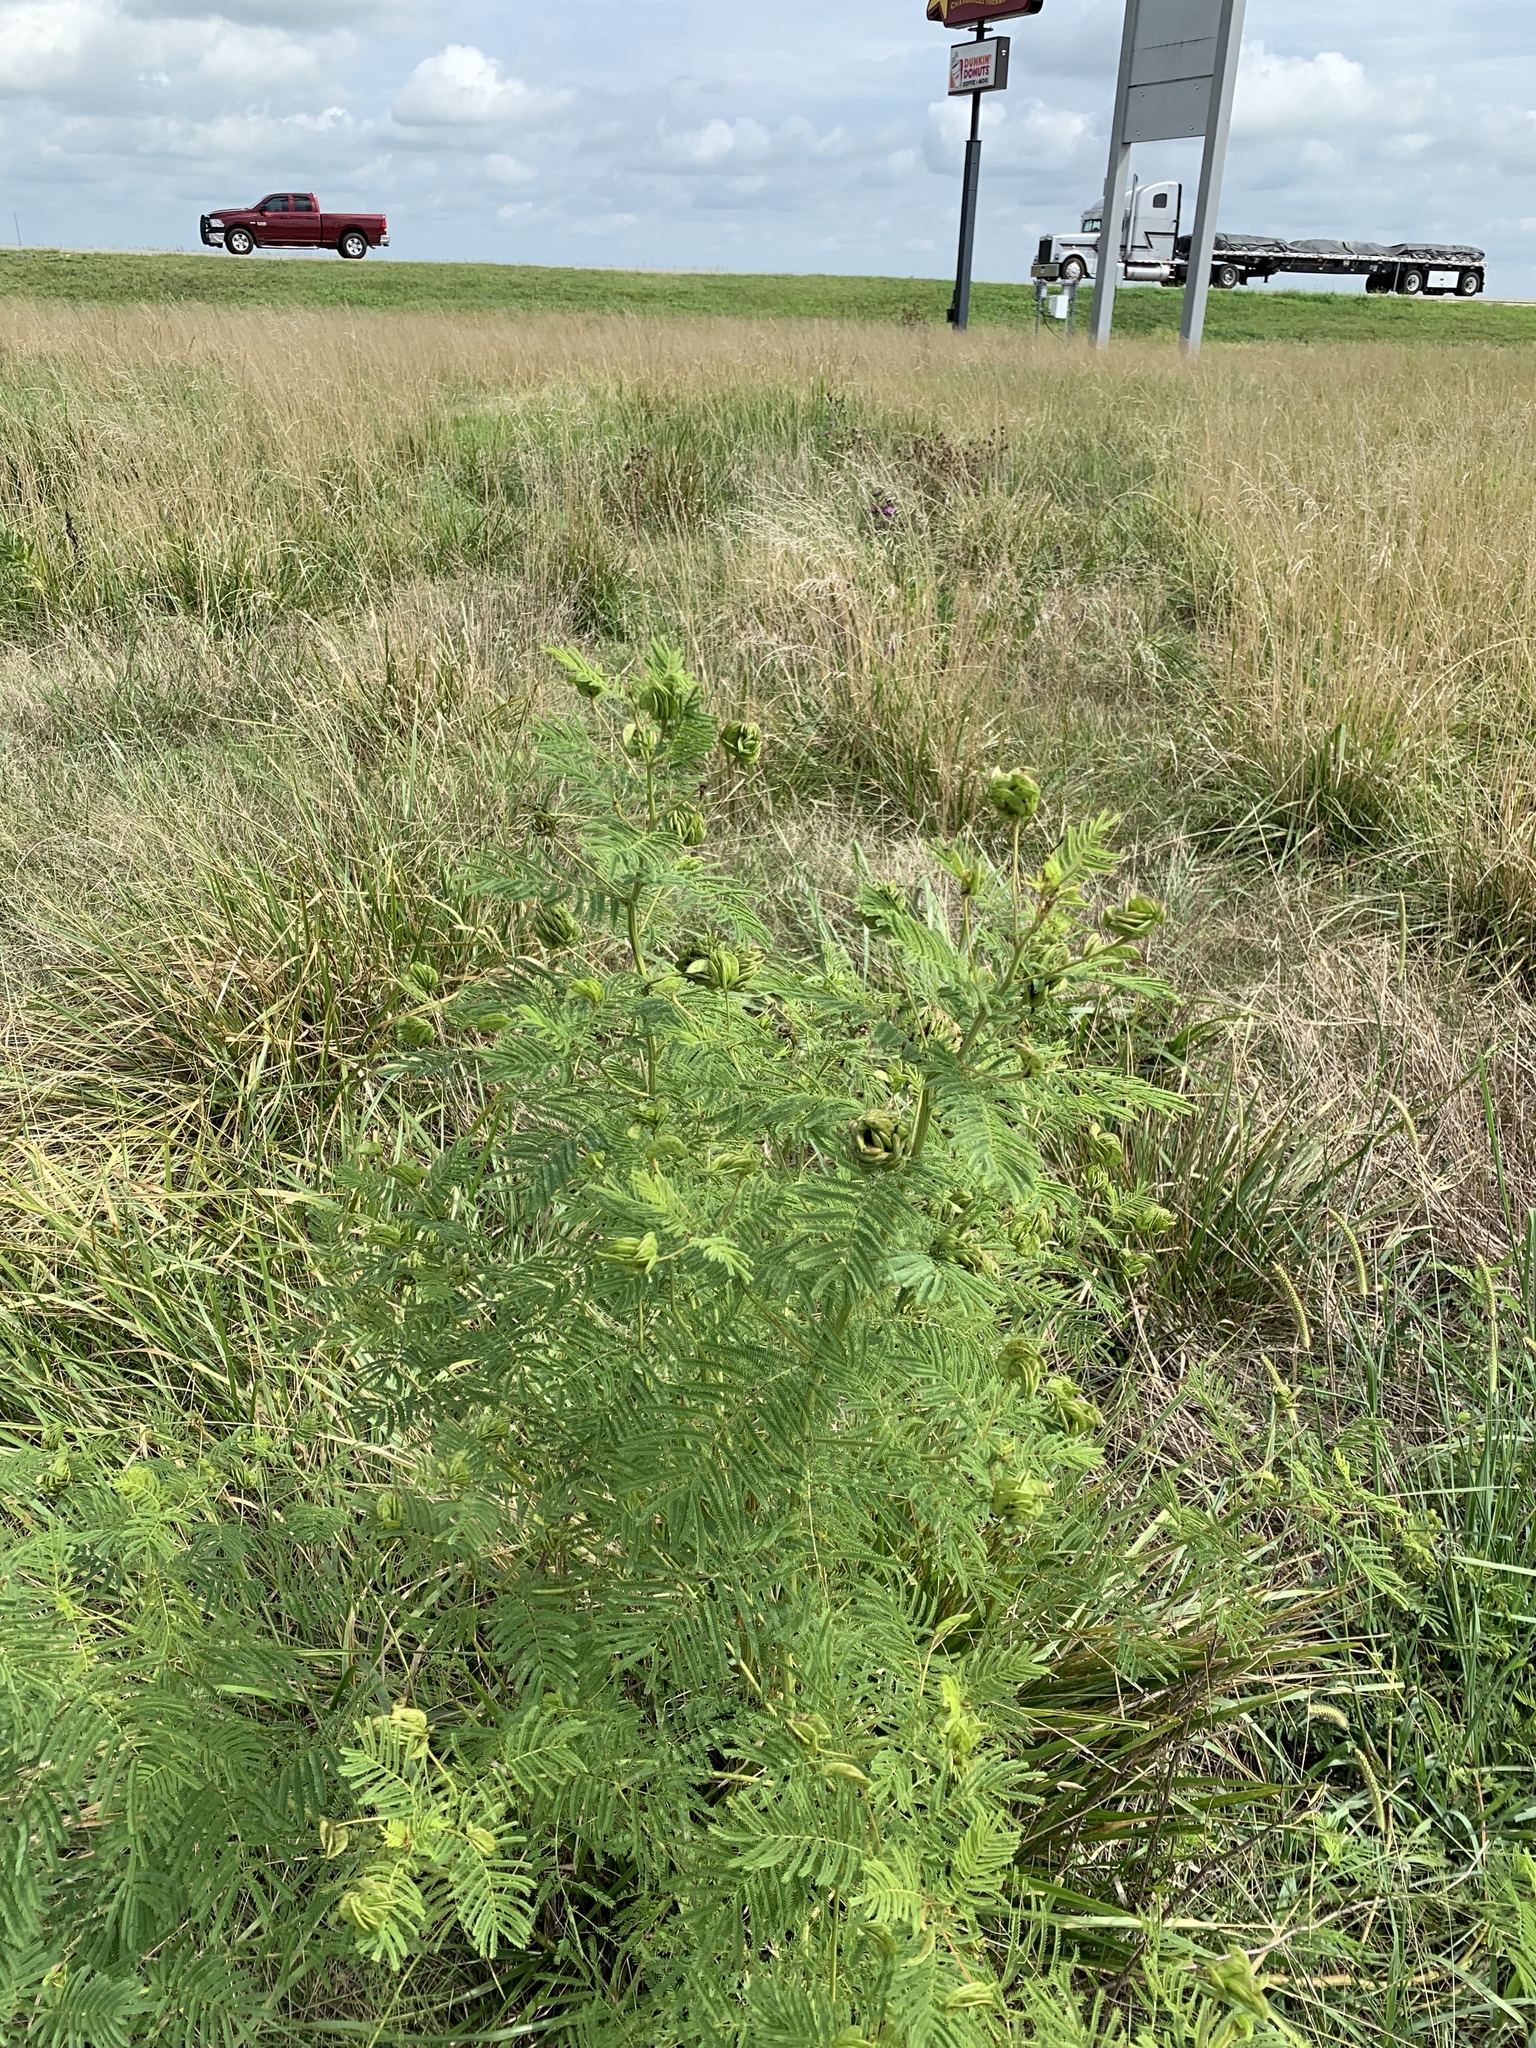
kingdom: Plantae
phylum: Tracheophyta
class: Magnoliopsida
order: Fabales
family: Fabaceae
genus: Desmanthus
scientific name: Desmanthus illinoensis
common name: Illinois bundle-flower
